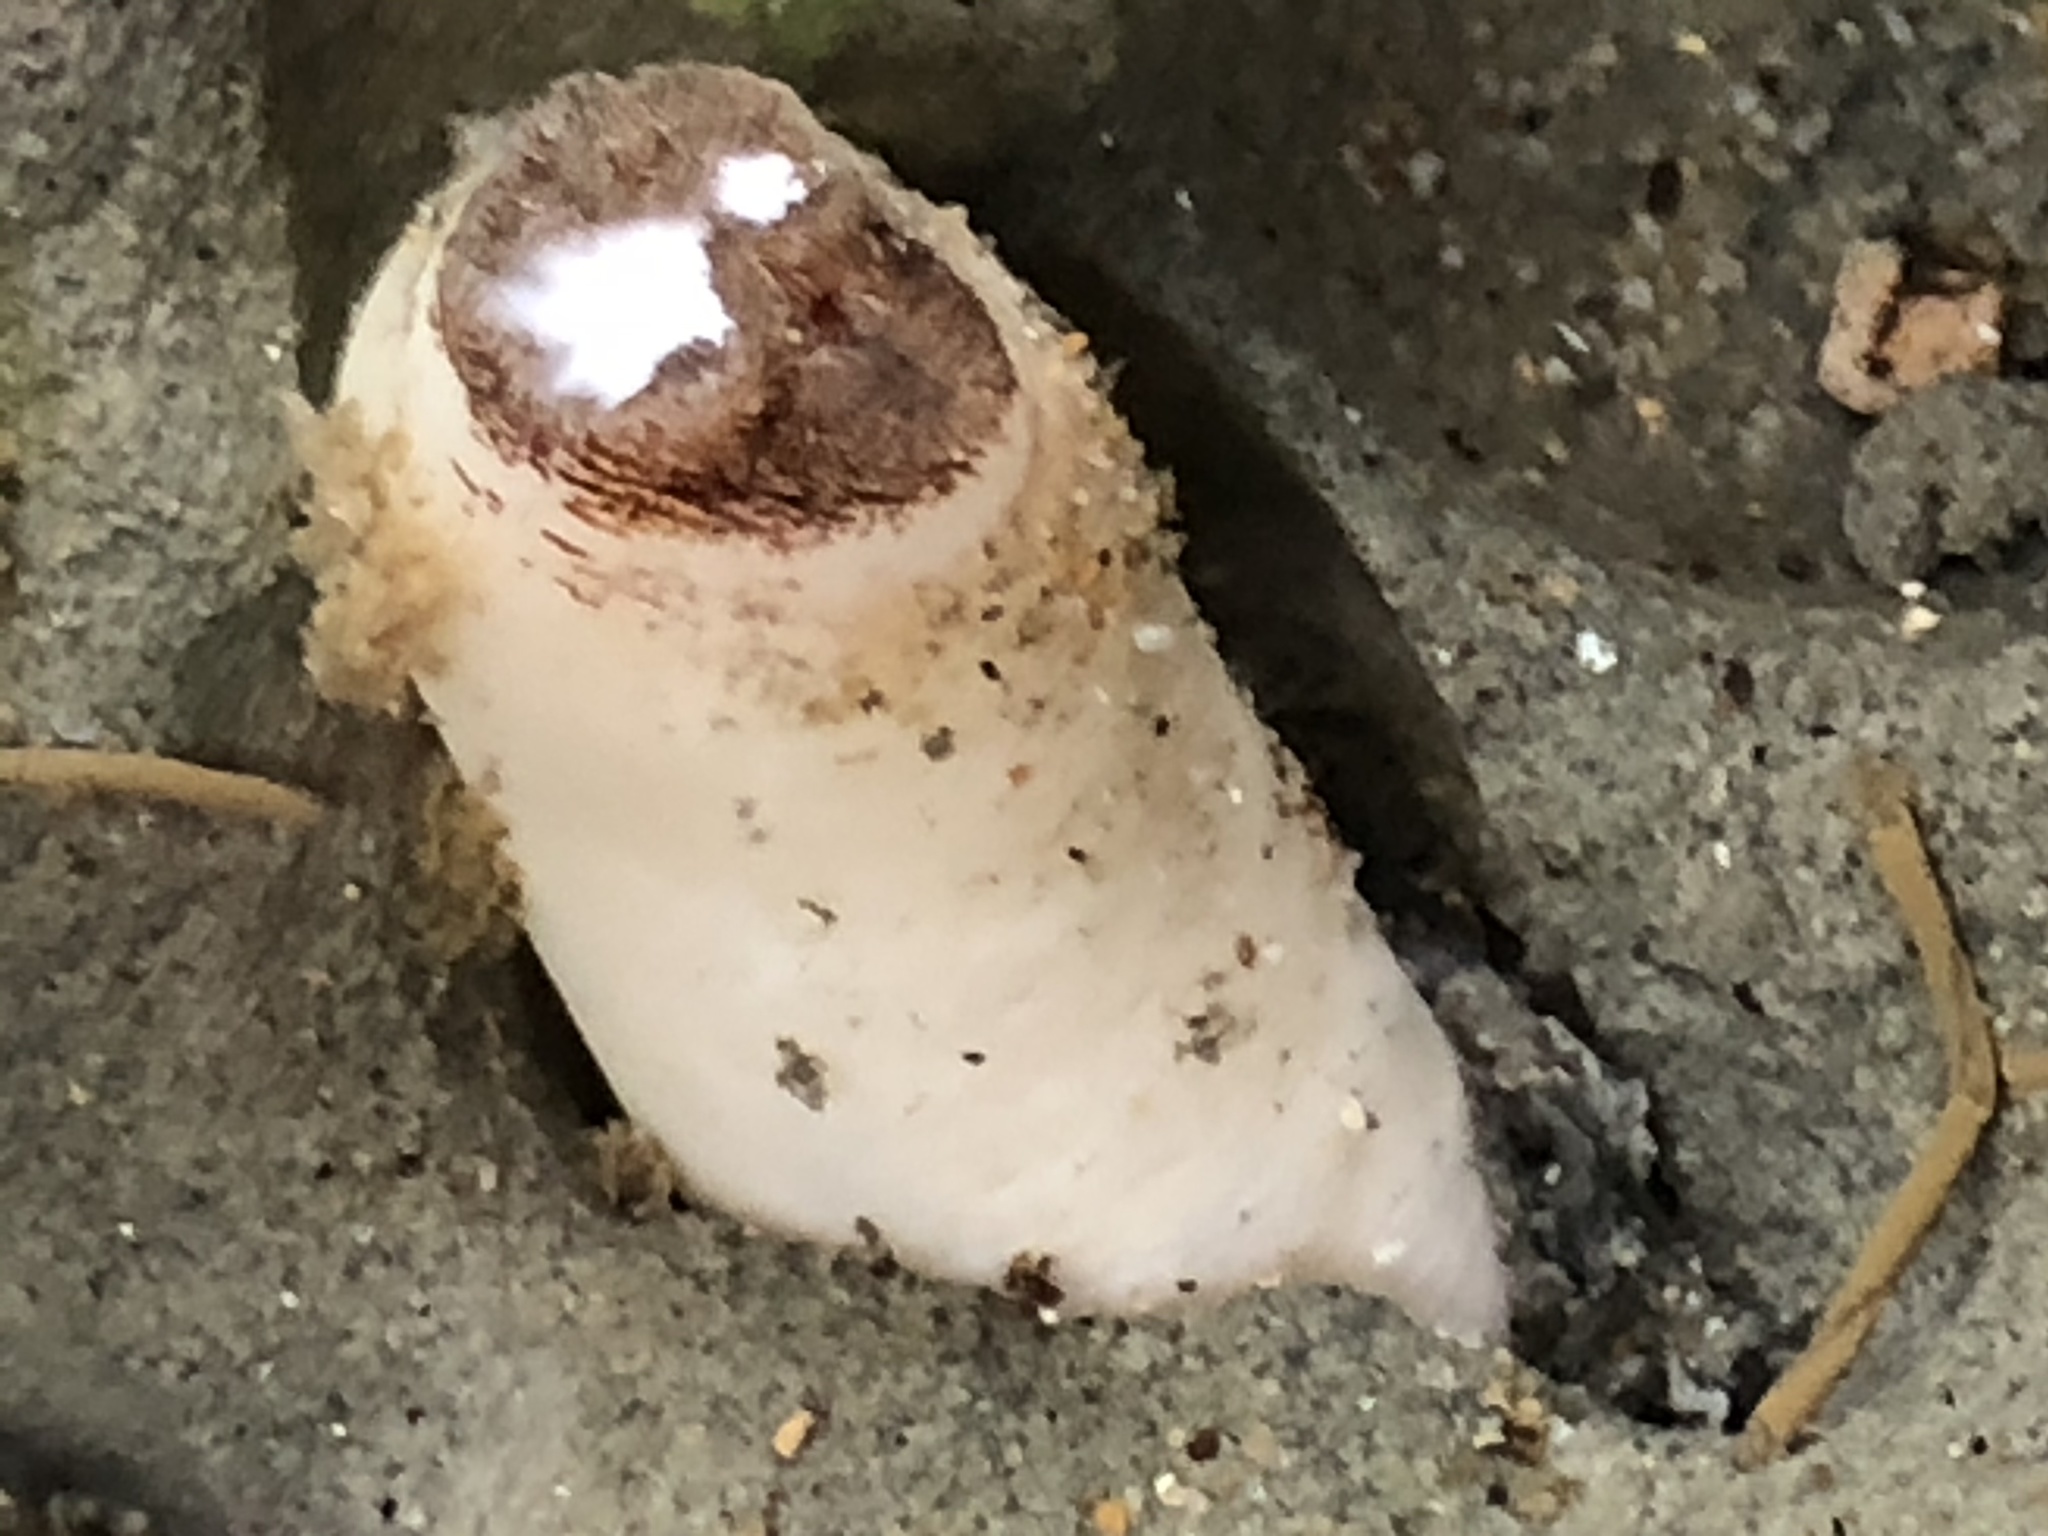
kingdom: Animalia
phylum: Mollusca
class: Bivalvia
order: Myida
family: Pholadidae
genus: Parapholas
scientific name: Parapholas californica
